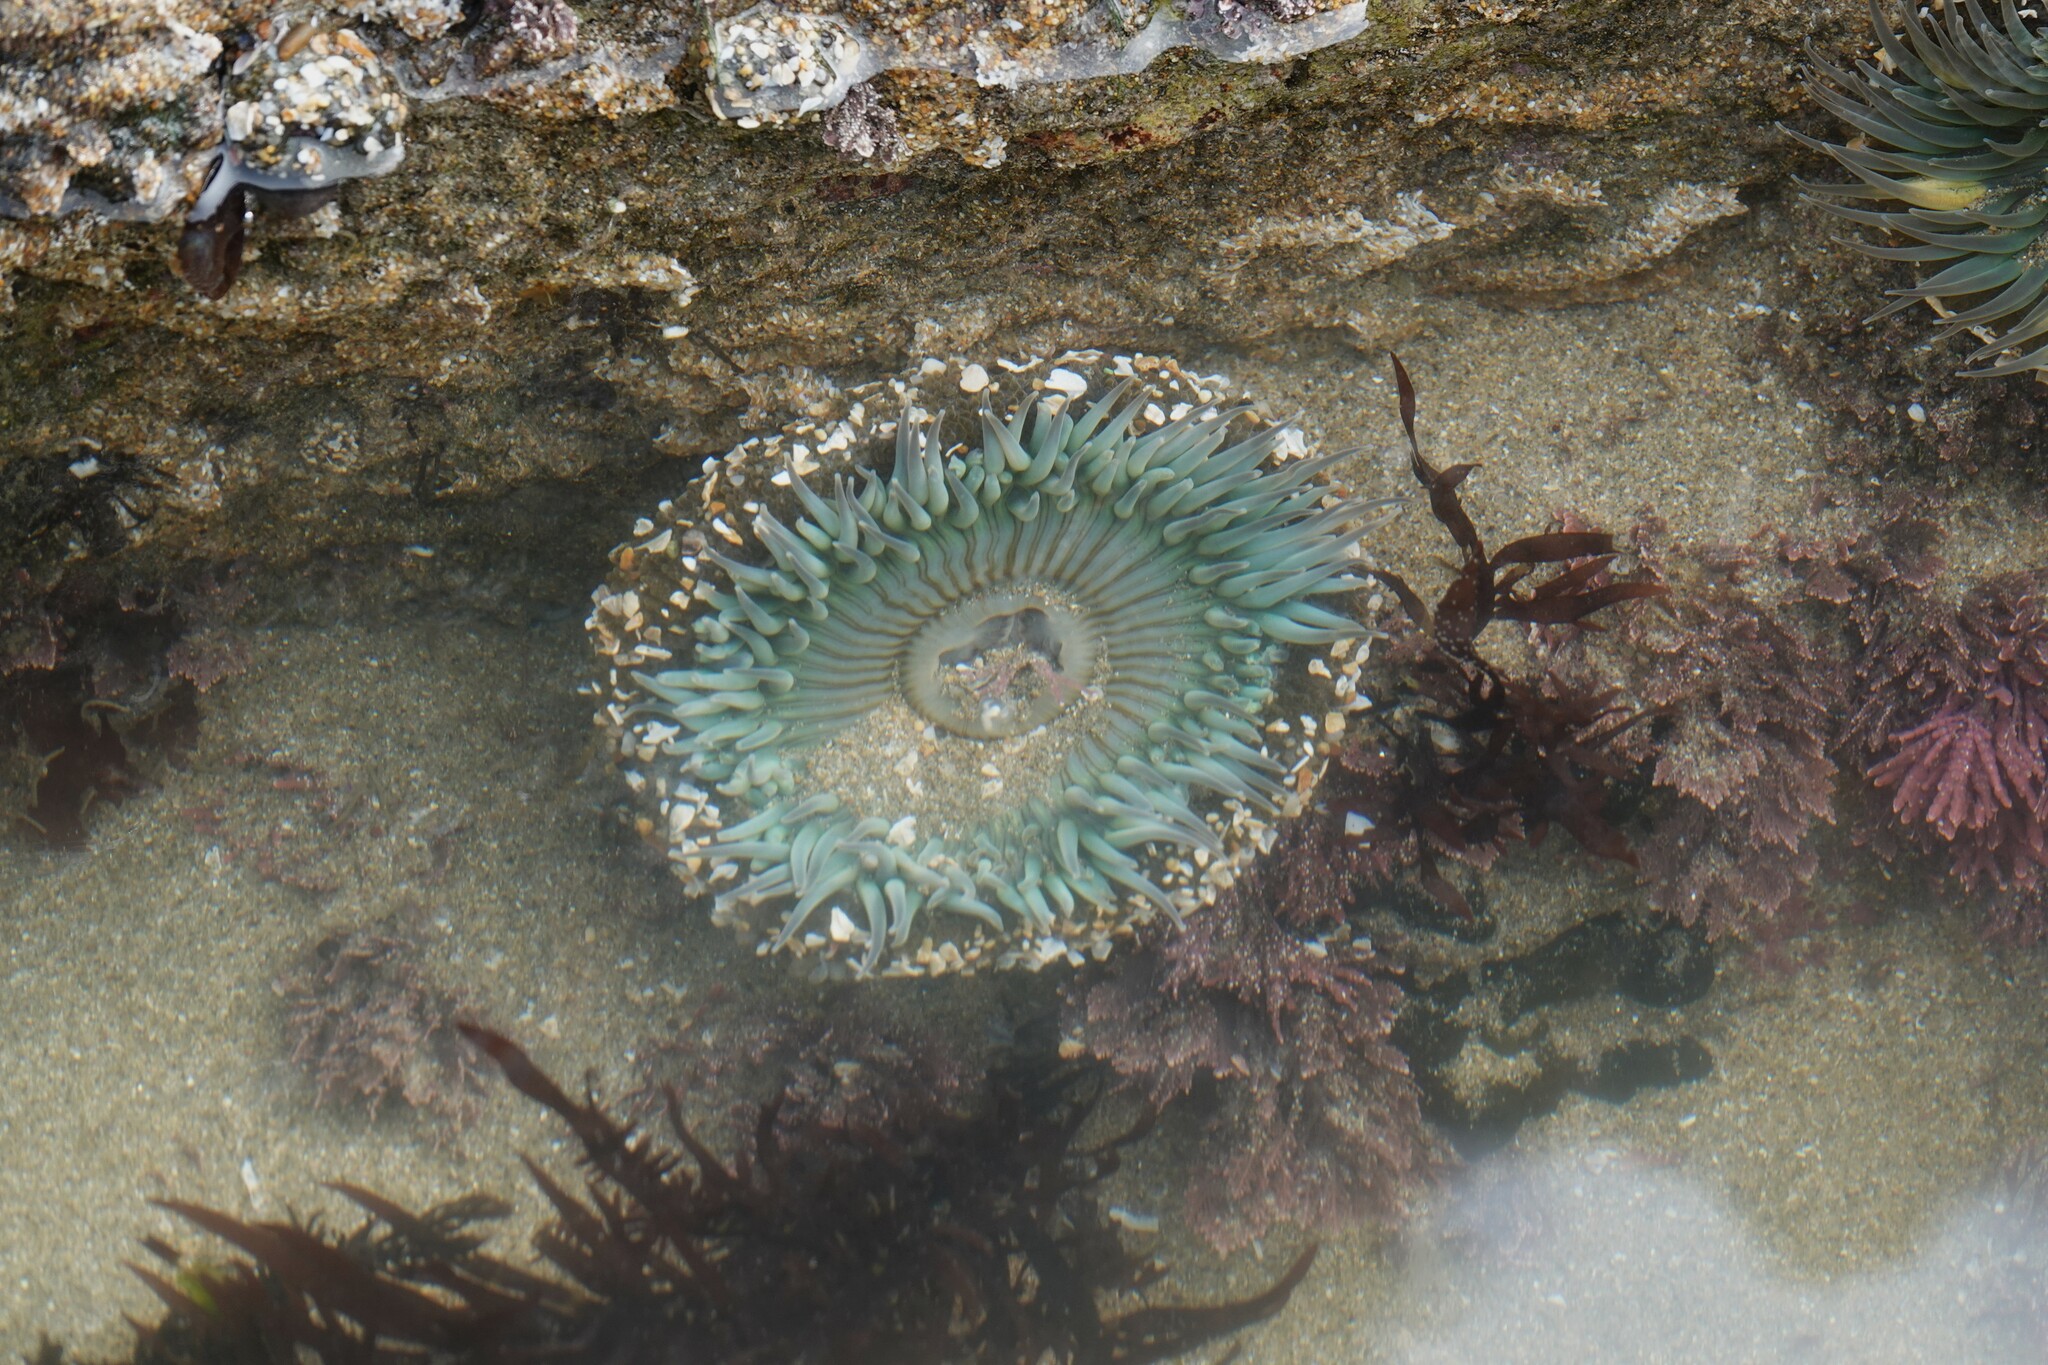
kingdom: Animalia
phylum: Cnidaria
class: Anthozoa
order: Actiniaria
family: Actiniidae
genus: Anthopleura
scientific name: Anthopleura sola
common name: Sun anemone
